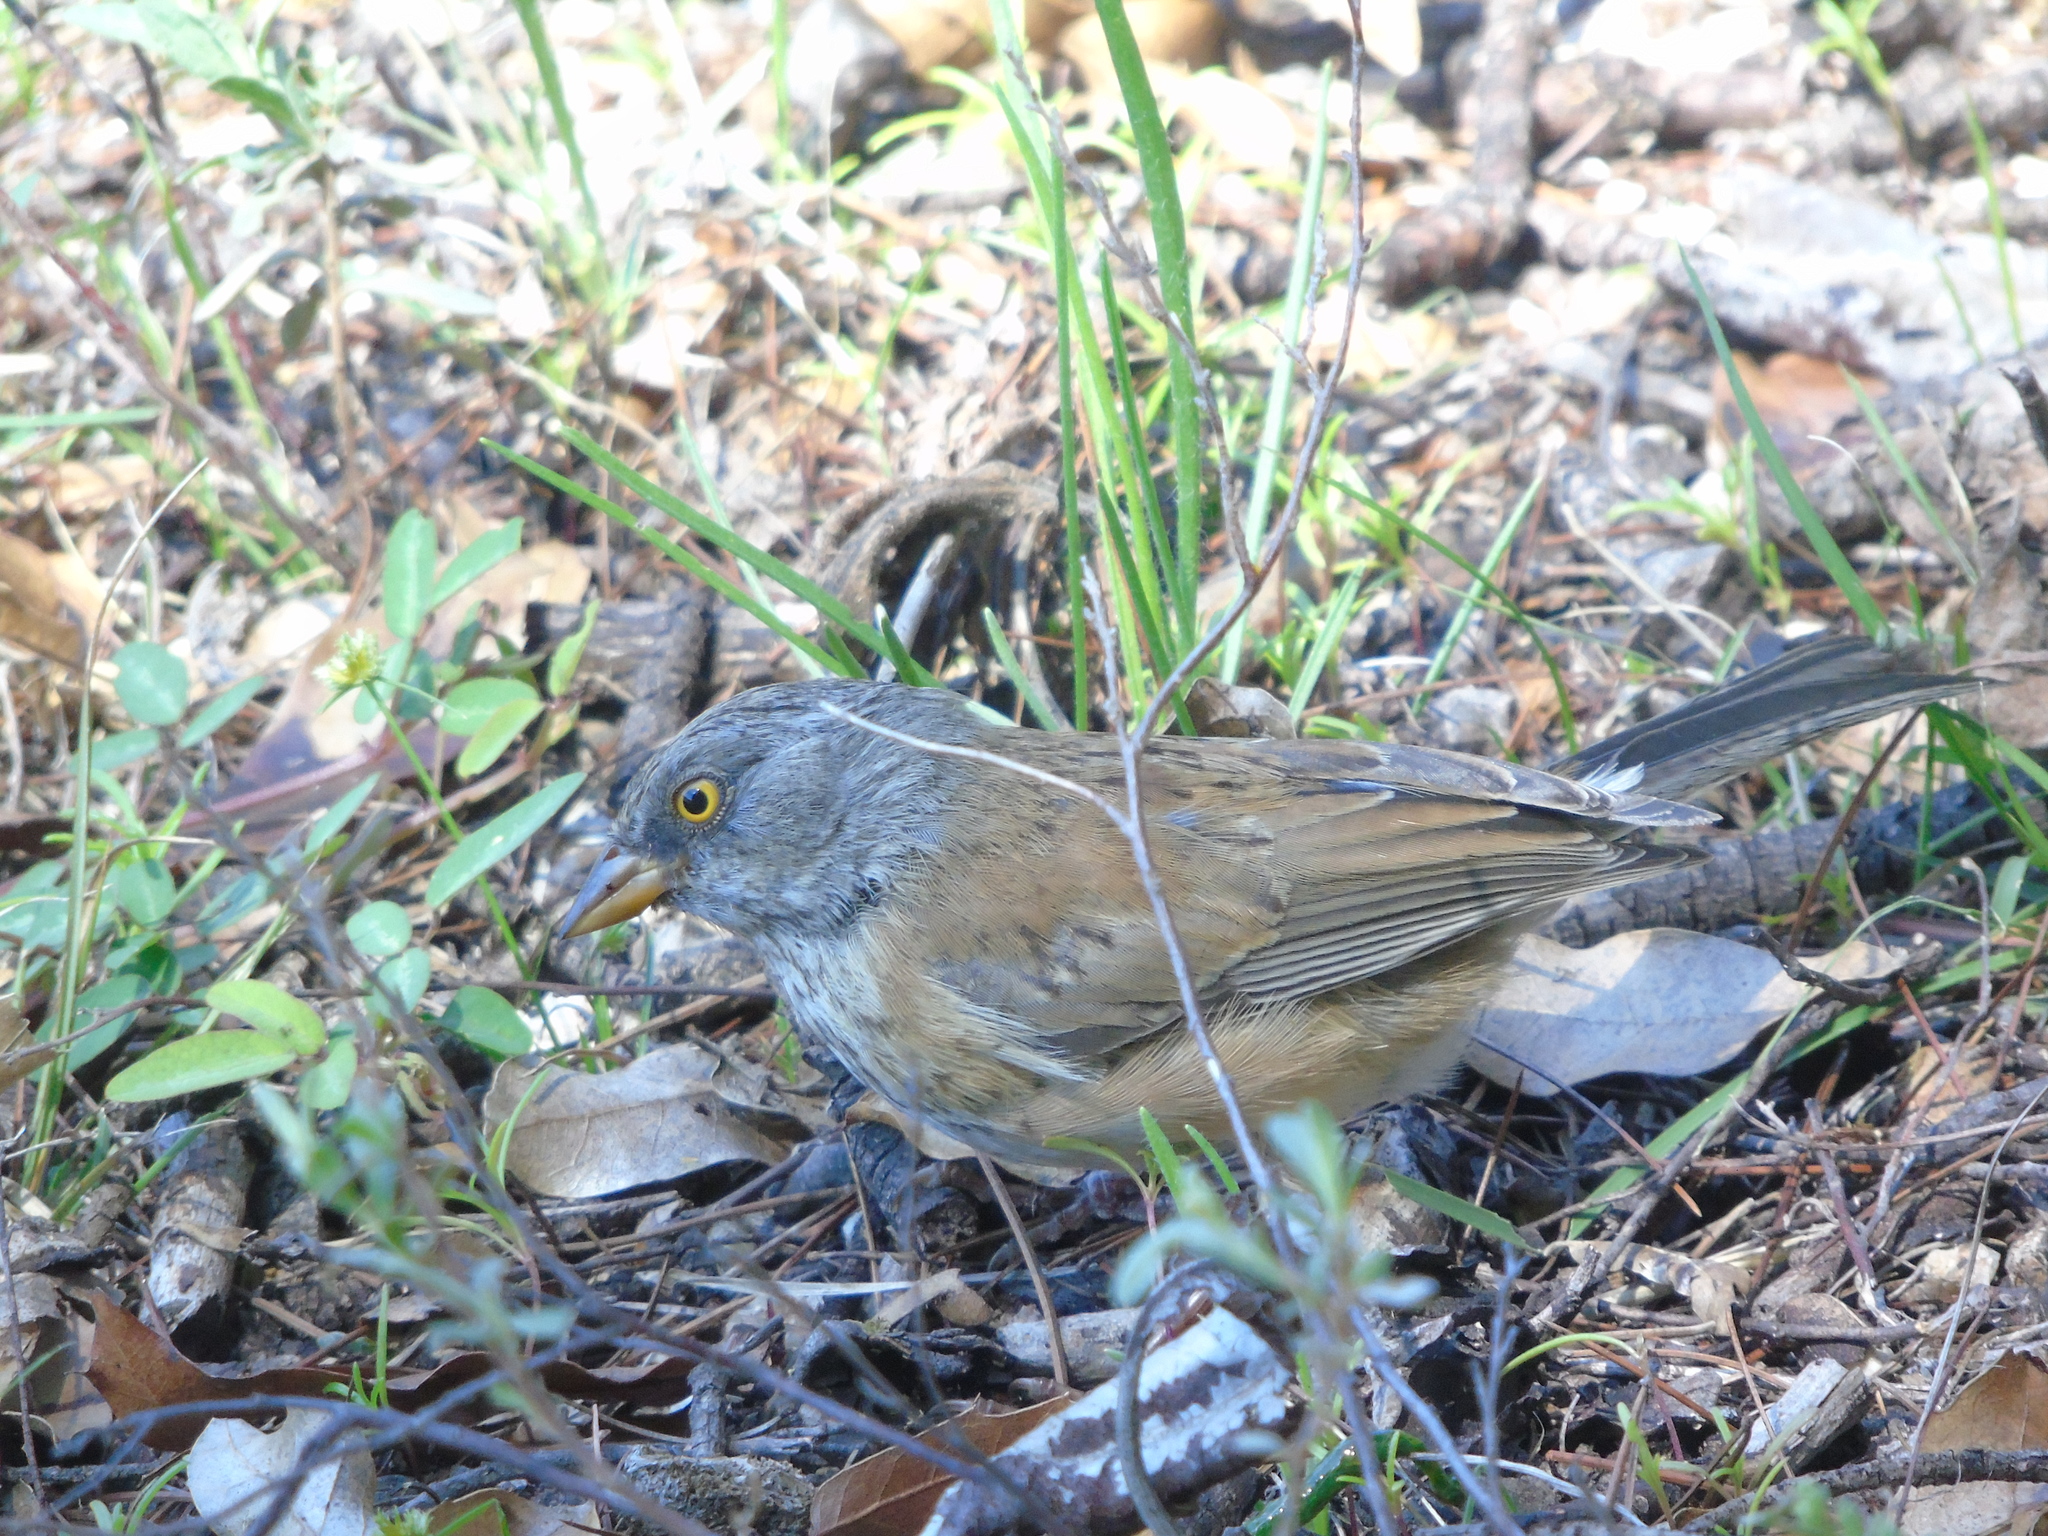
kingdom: Animalia
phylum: Chordata
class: Aves
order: Passeriformes
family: Passerellidae
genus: Junco
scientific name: Junco bairdi
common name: Baird's junco
